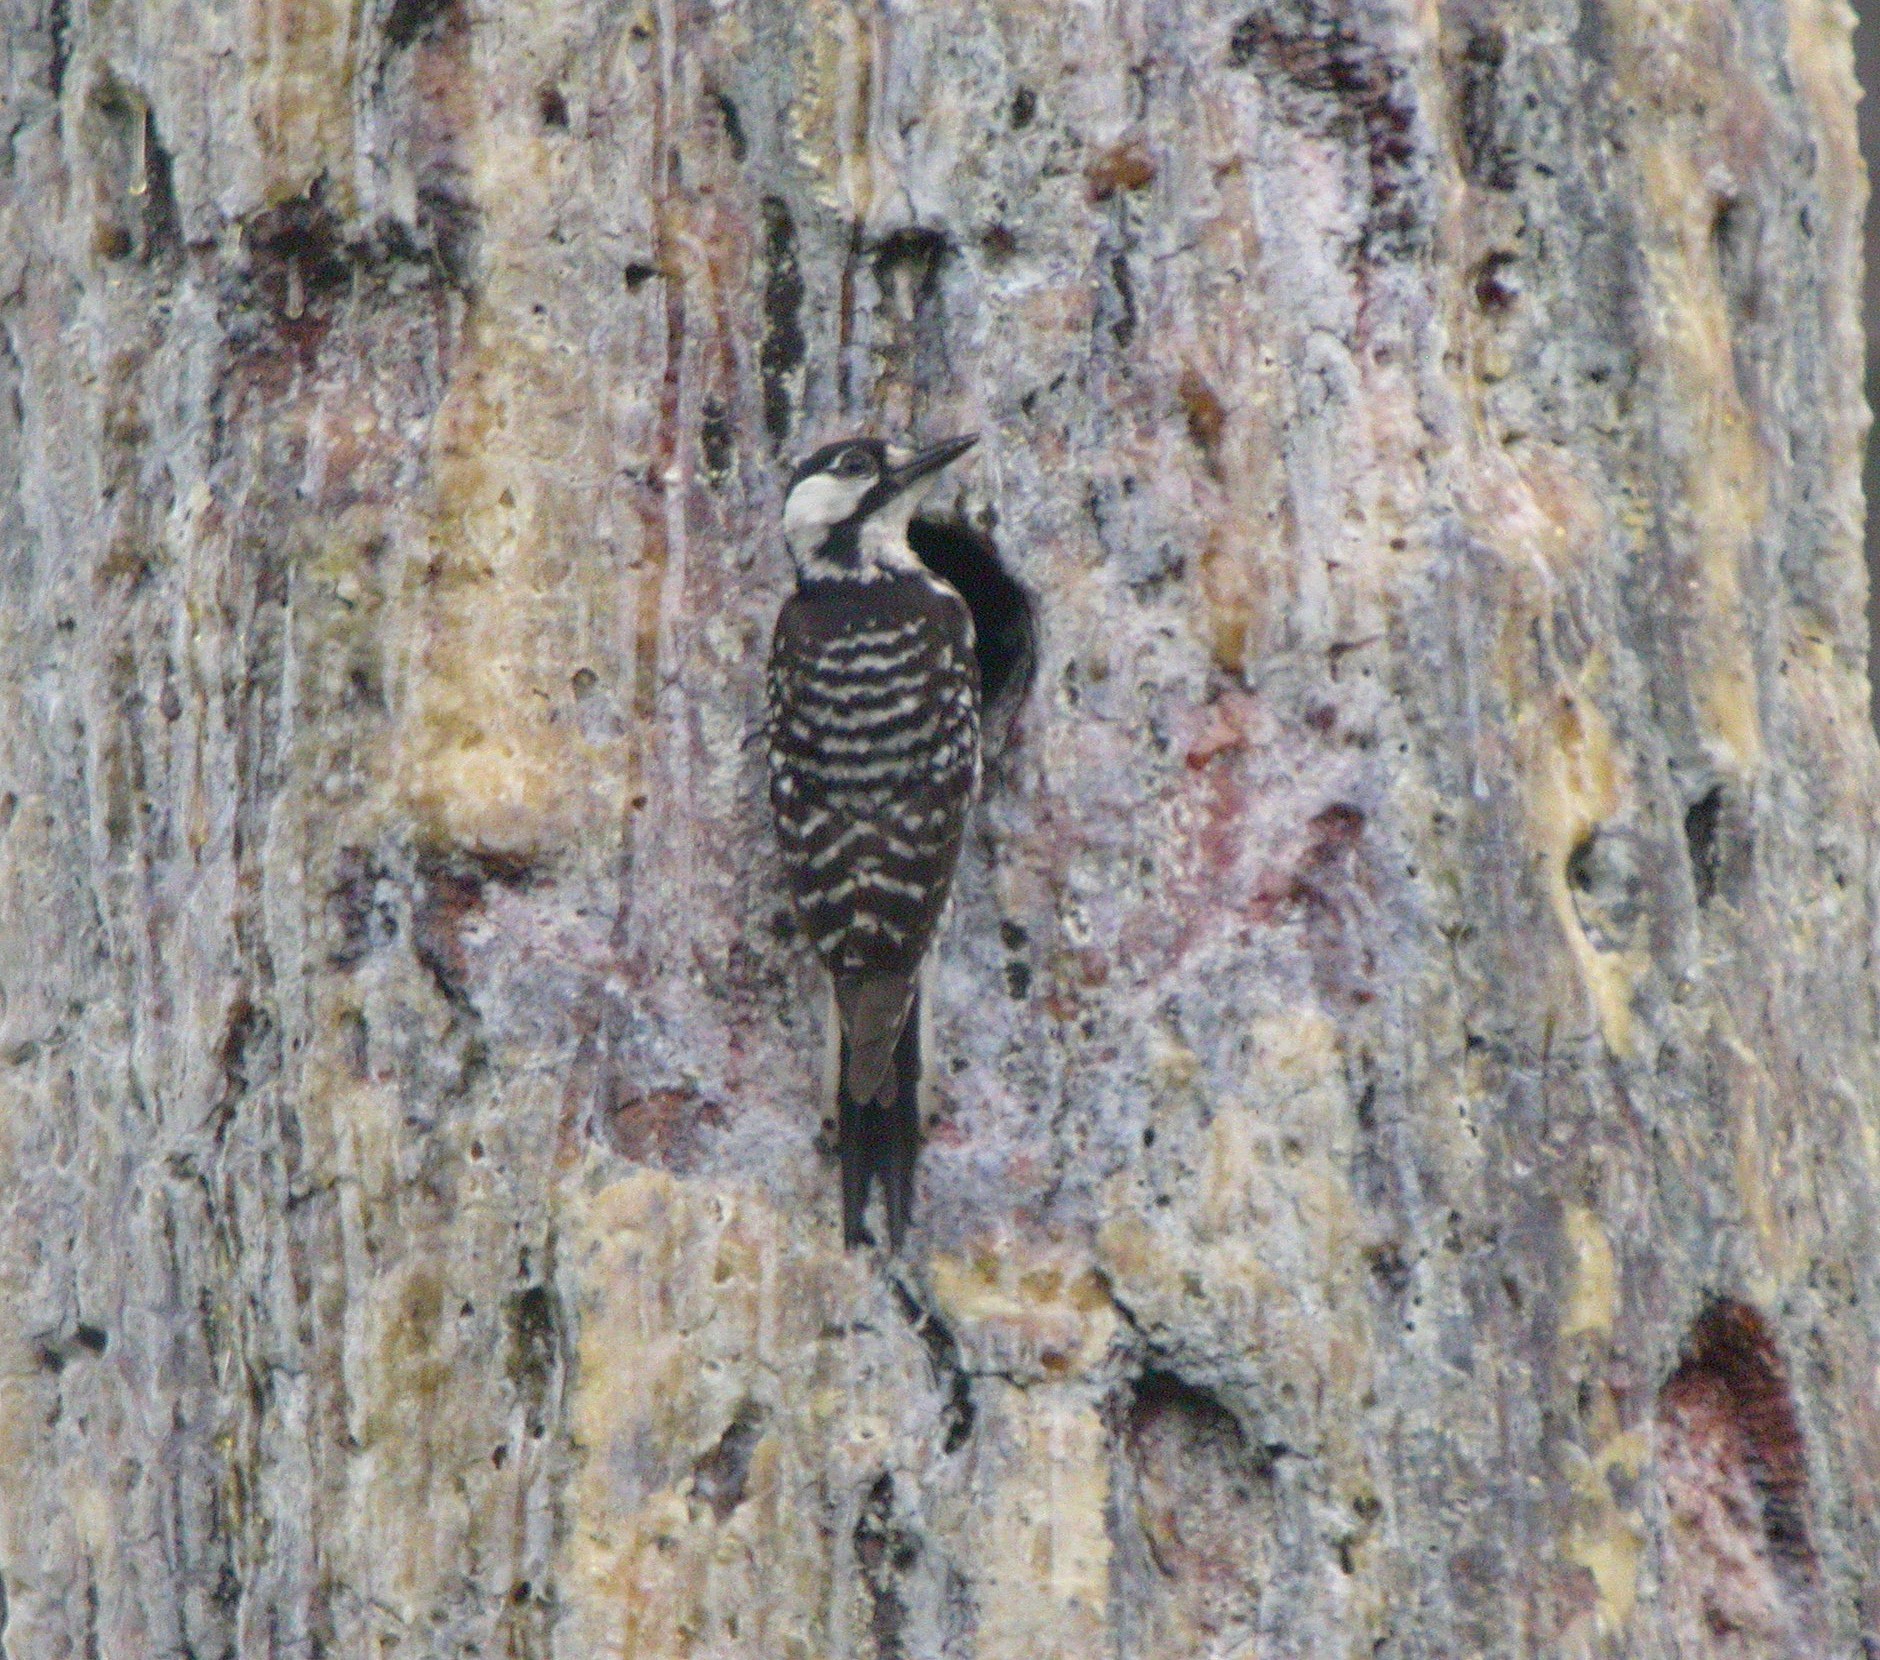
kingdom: Animalia
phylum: Chordata
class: Aves
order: Piciformes
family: Picidae
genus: Leuconotopicus
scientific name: Leuconotopicus borealis
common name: Red-cockaded woodpecker
